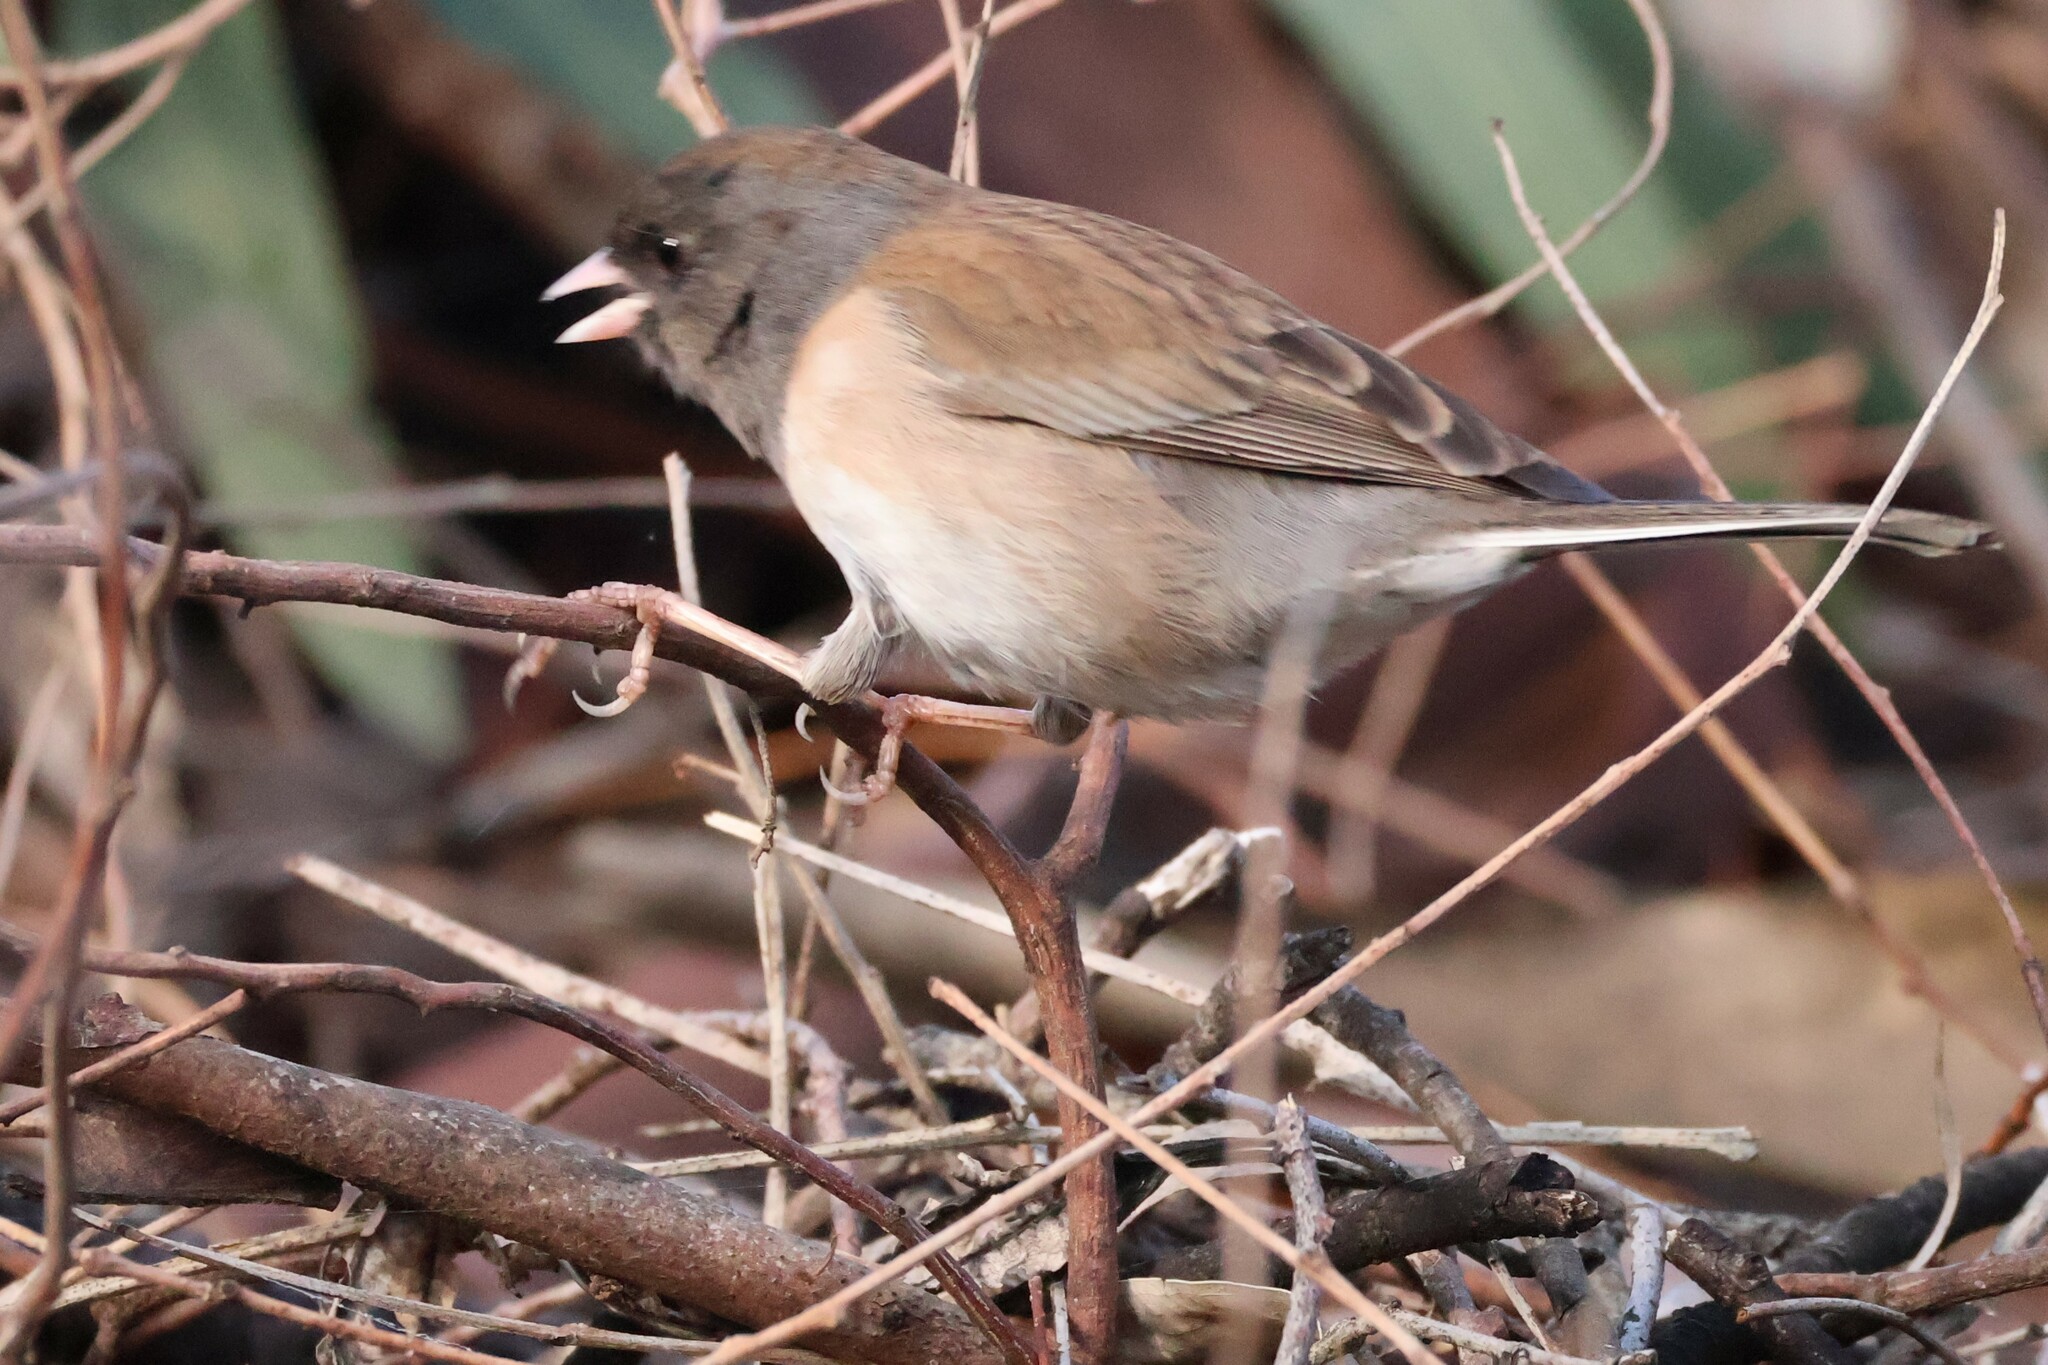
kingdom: Animalia
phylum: Chordata
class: Aves
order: Passeriformes
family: Passerellidae
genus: Junco
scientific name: Junco hyemalis
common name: Dark-eyed junco
